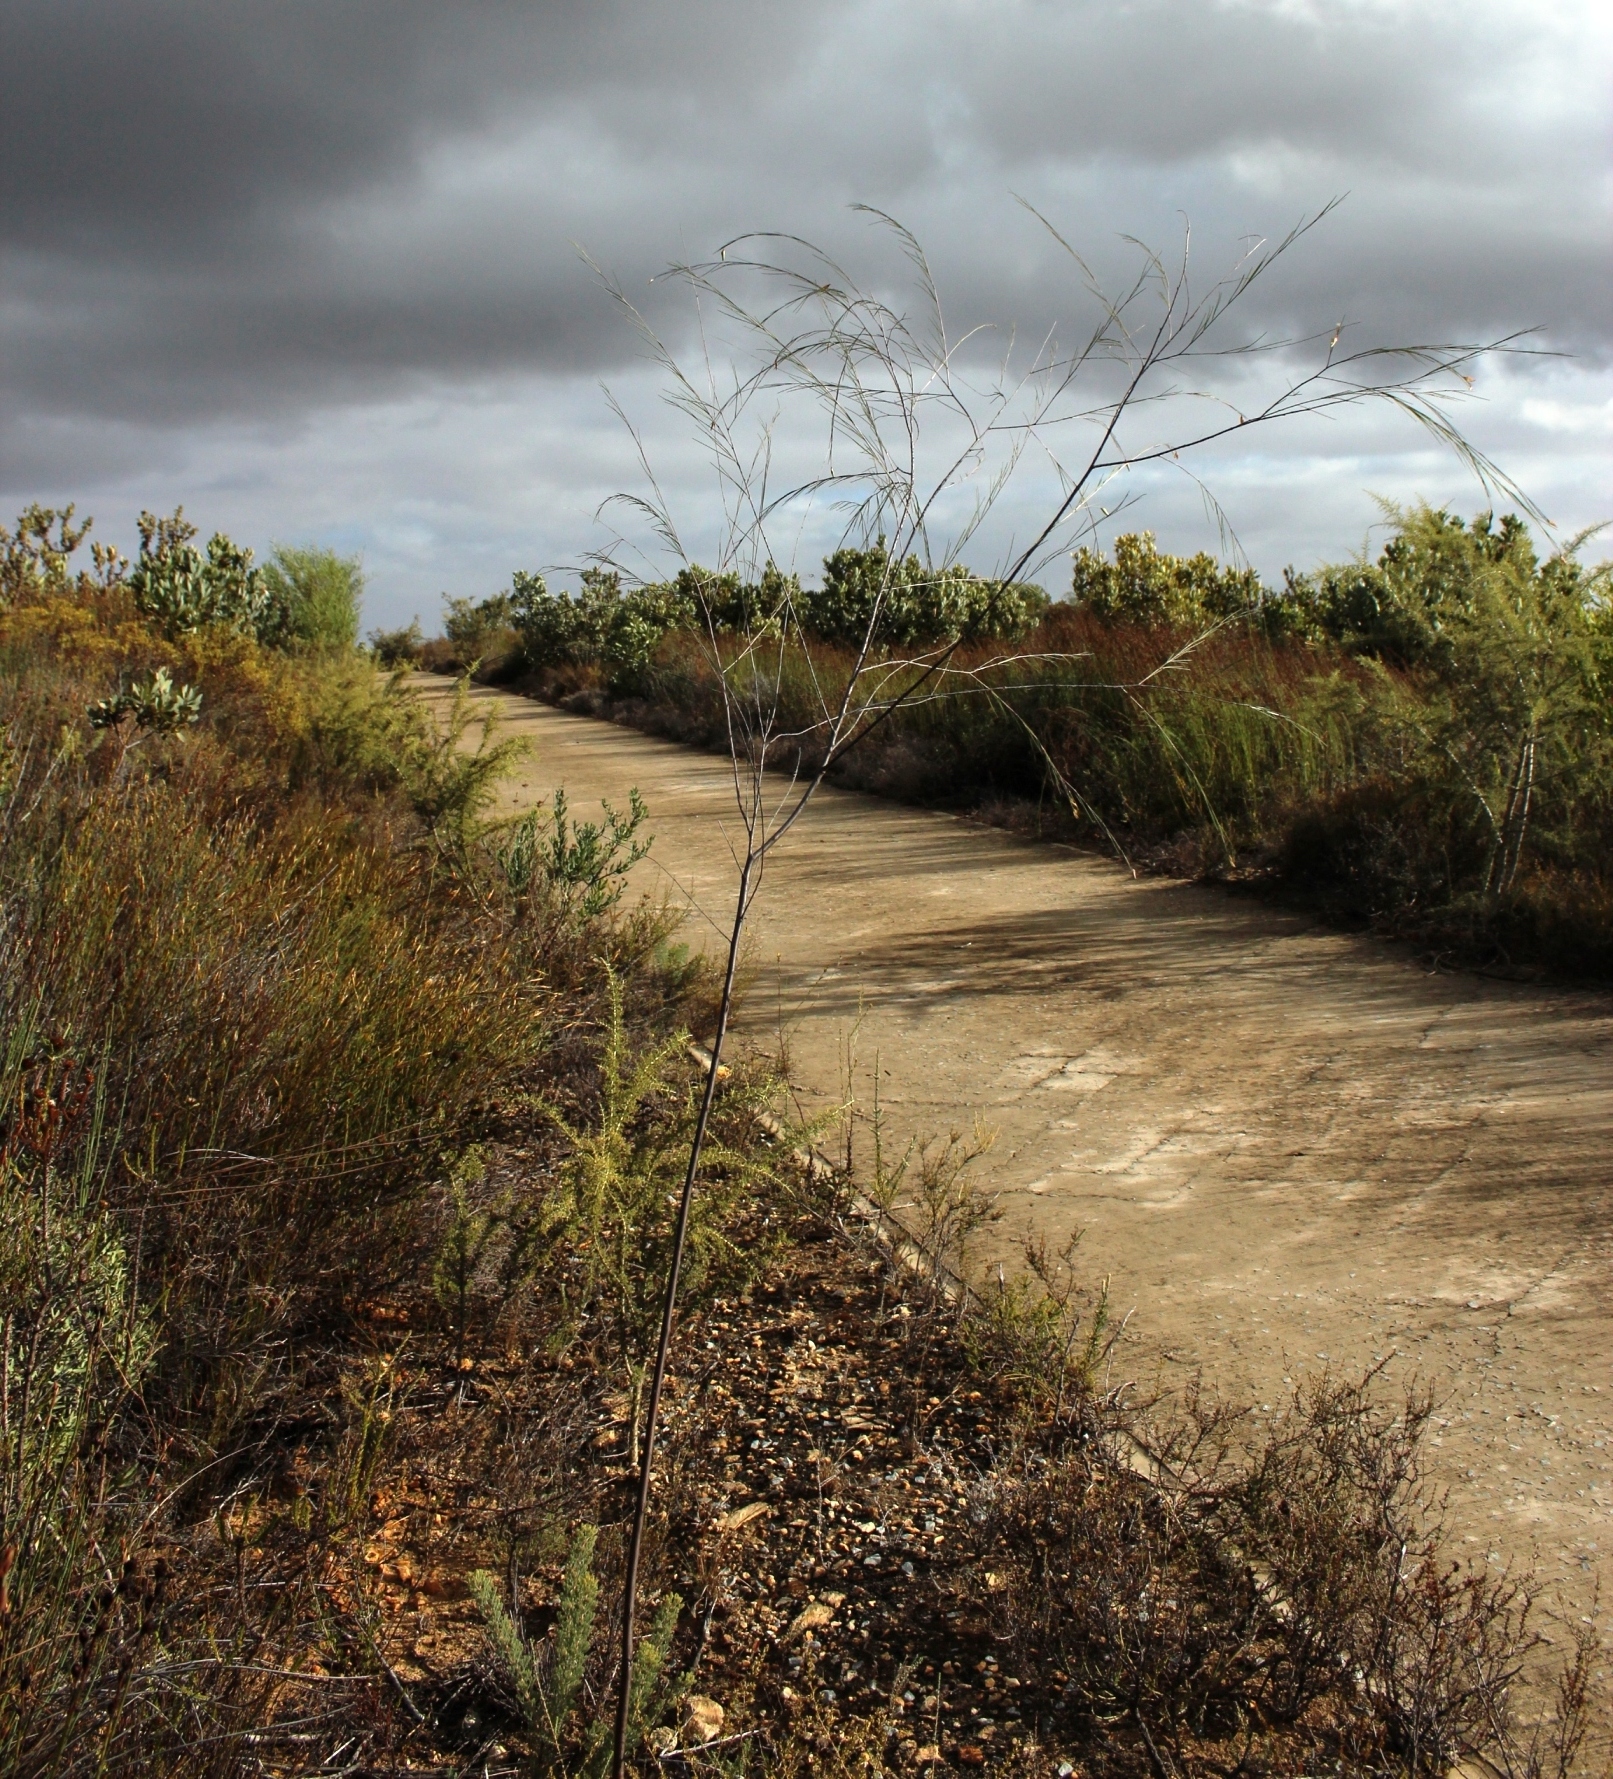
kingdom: Plantae
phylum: Tracheophyta
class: Magnoliopsida
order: Fabales
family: Fabaceae
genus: Aspalathus
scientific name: Aspalathus pendula
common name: Golden tea
